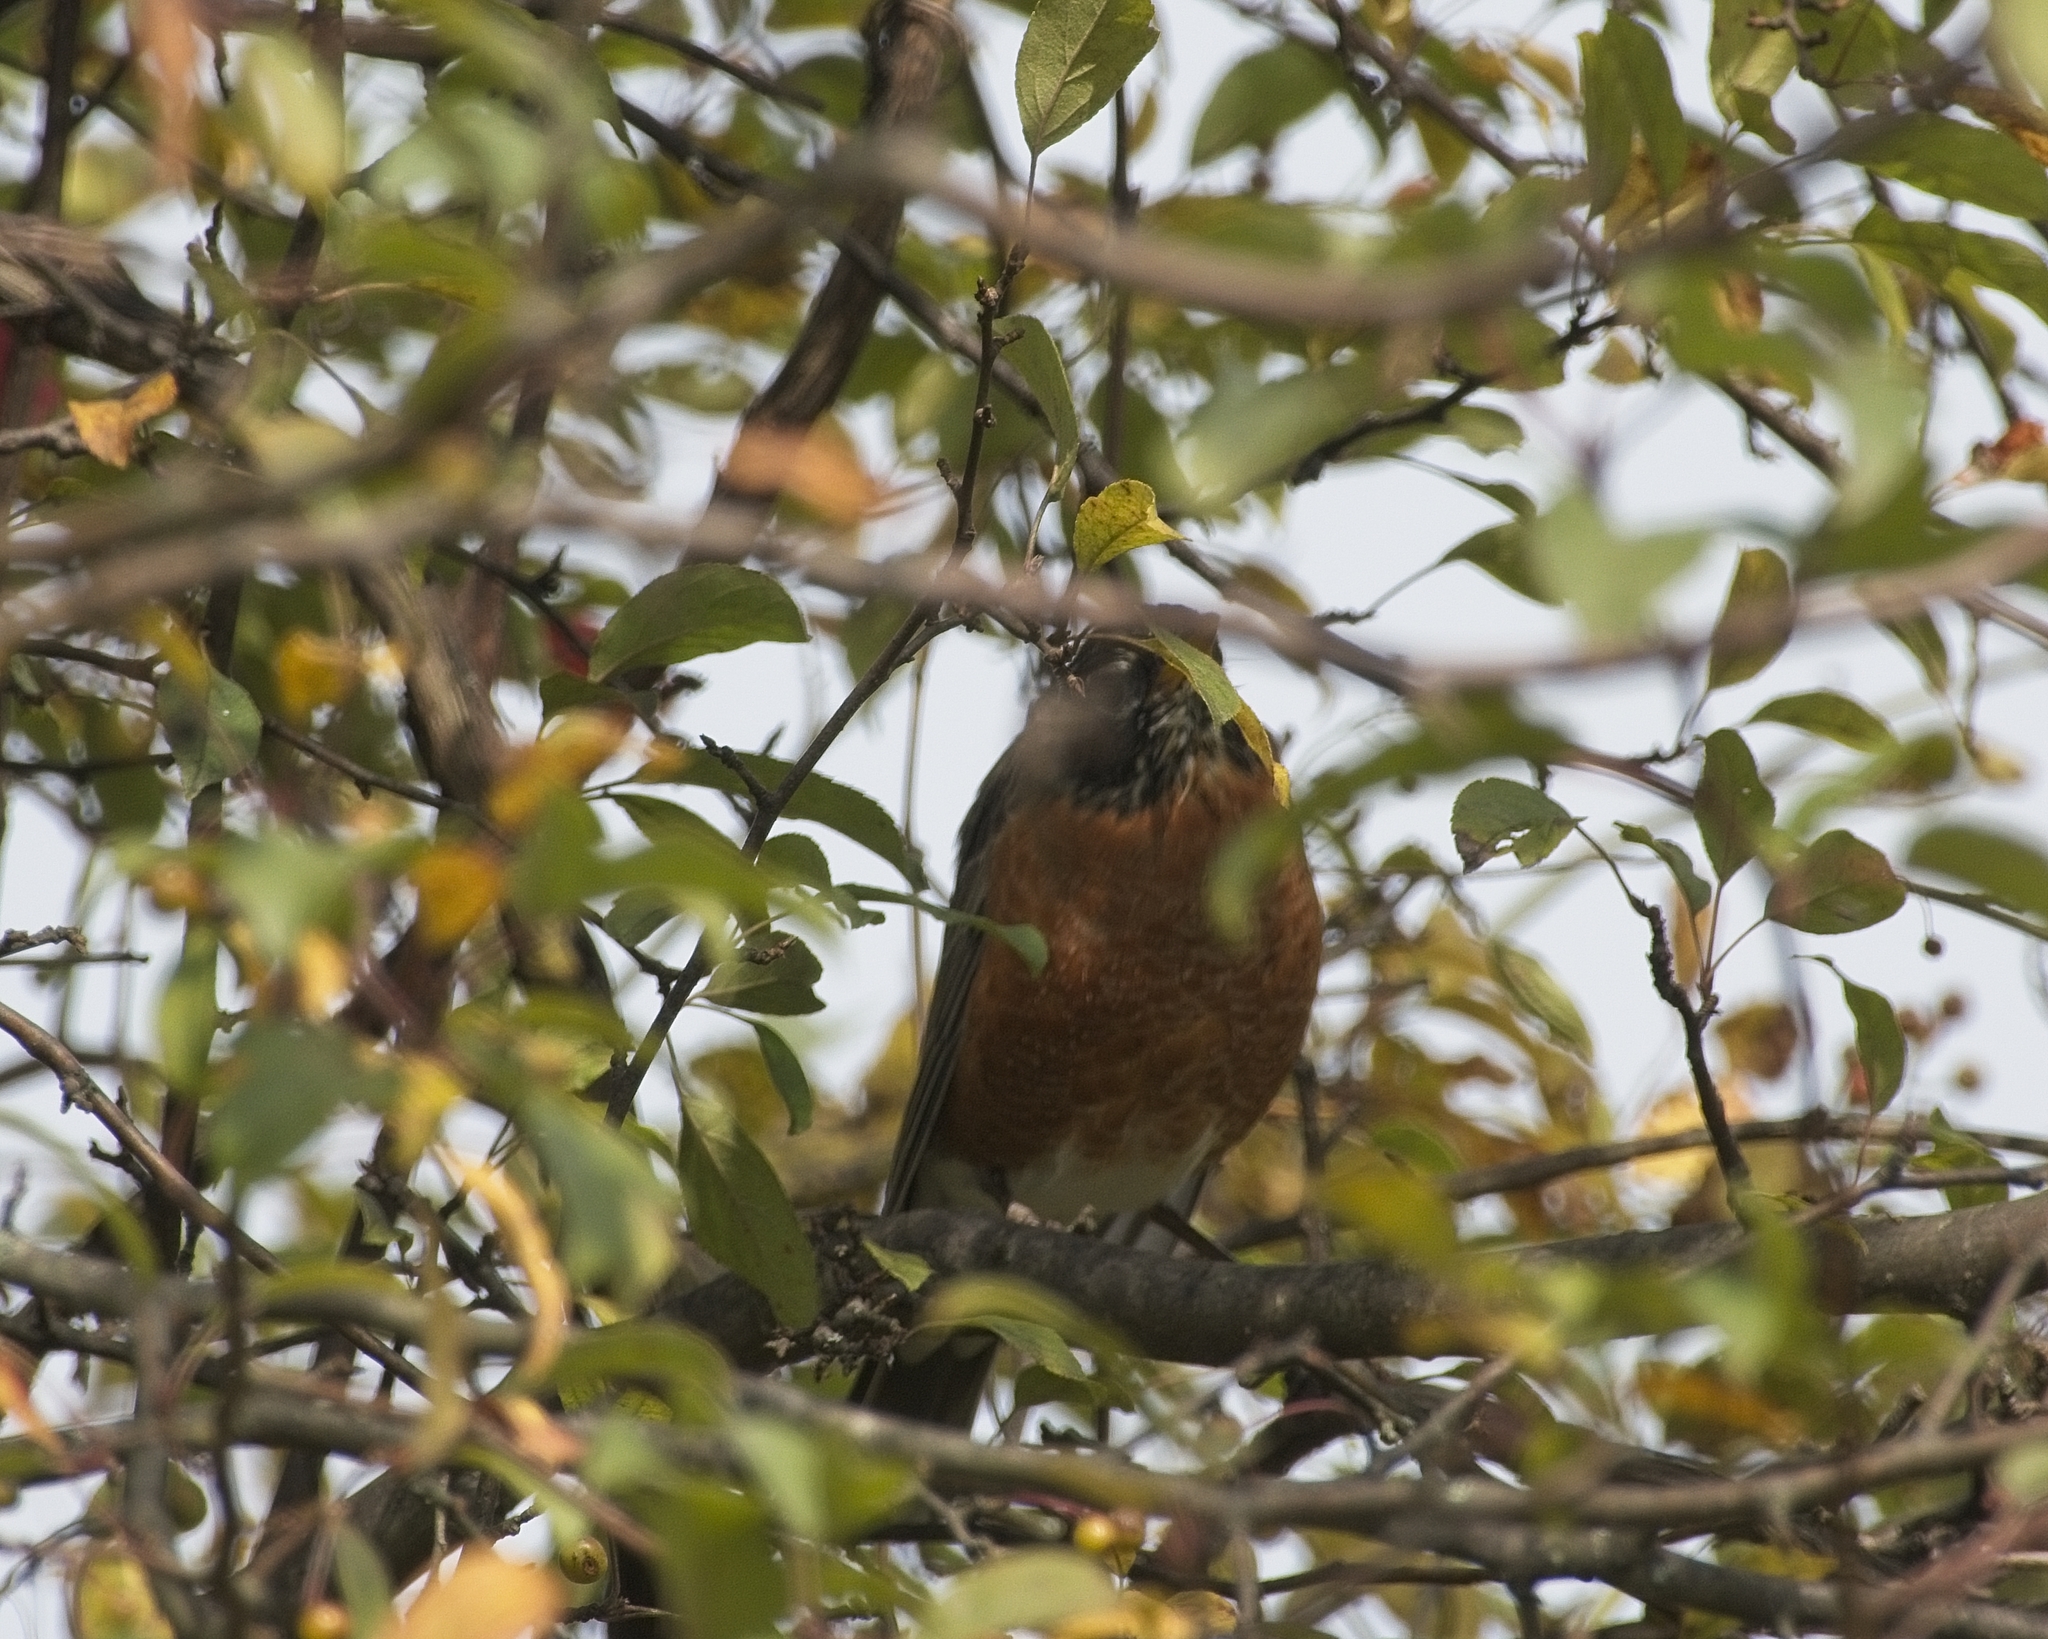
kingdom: Animalia
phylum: Chordata
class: Aves
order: Passeriformes
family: Turdidae
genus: Turdus
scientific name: Turdus migratorius
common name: American robin
